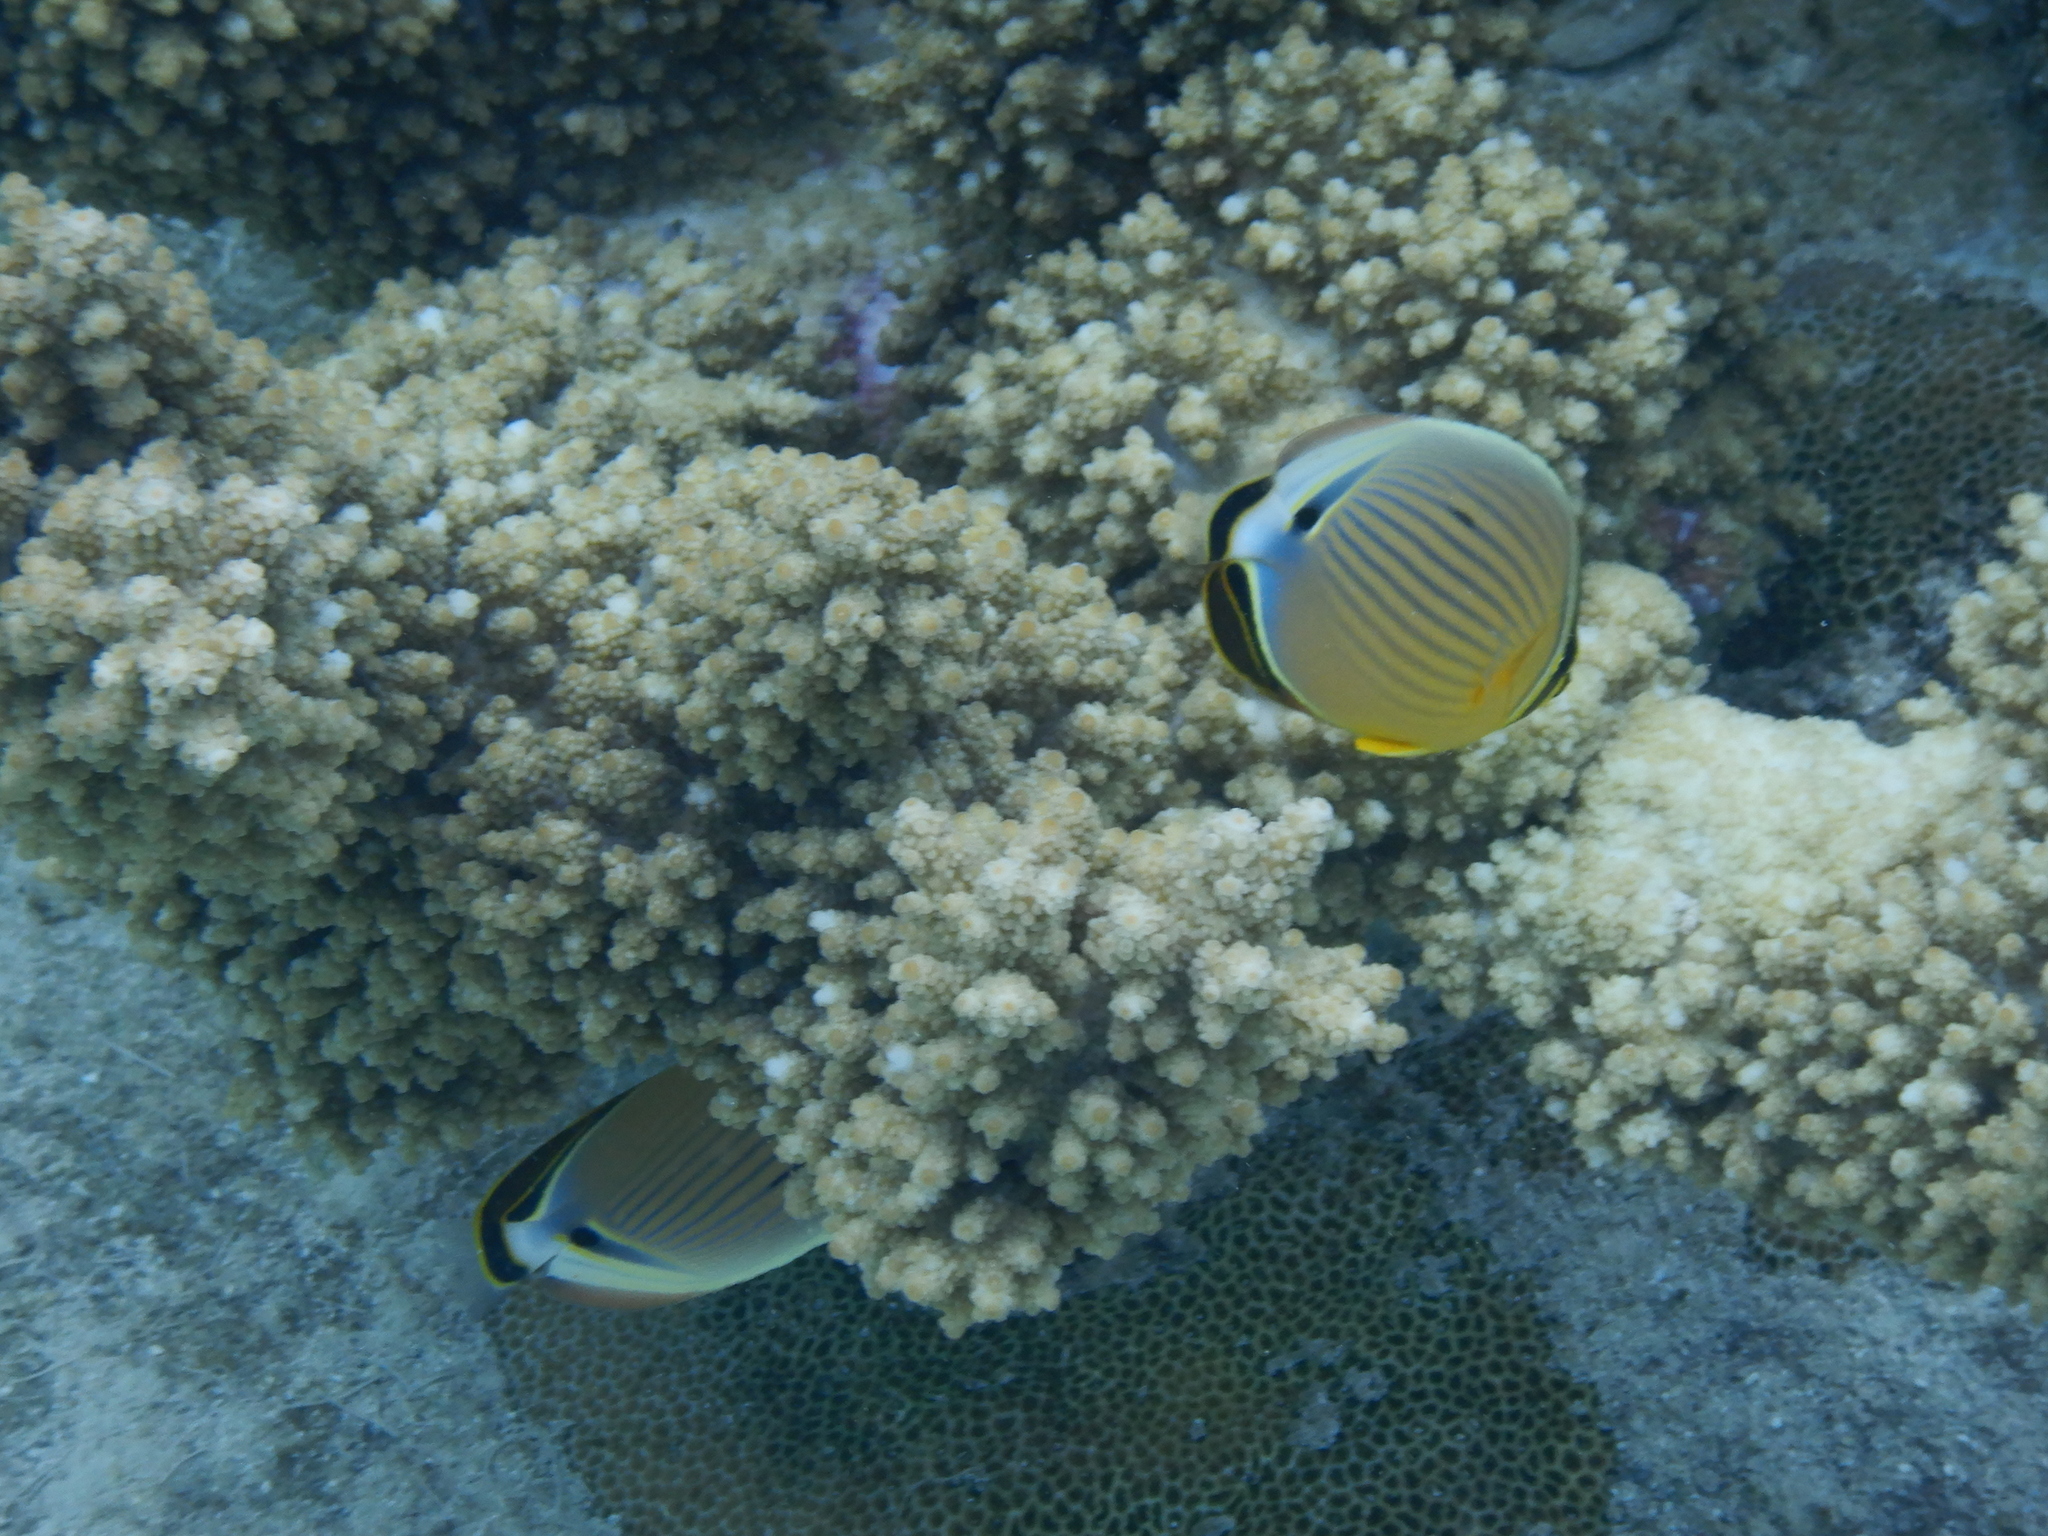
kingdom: Animalia
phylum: Chordata
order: Perciformes
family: Chaetodontidae
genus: Chaetodon
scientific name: Chaetodon lunulatus
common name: Redfin butterflyfish
